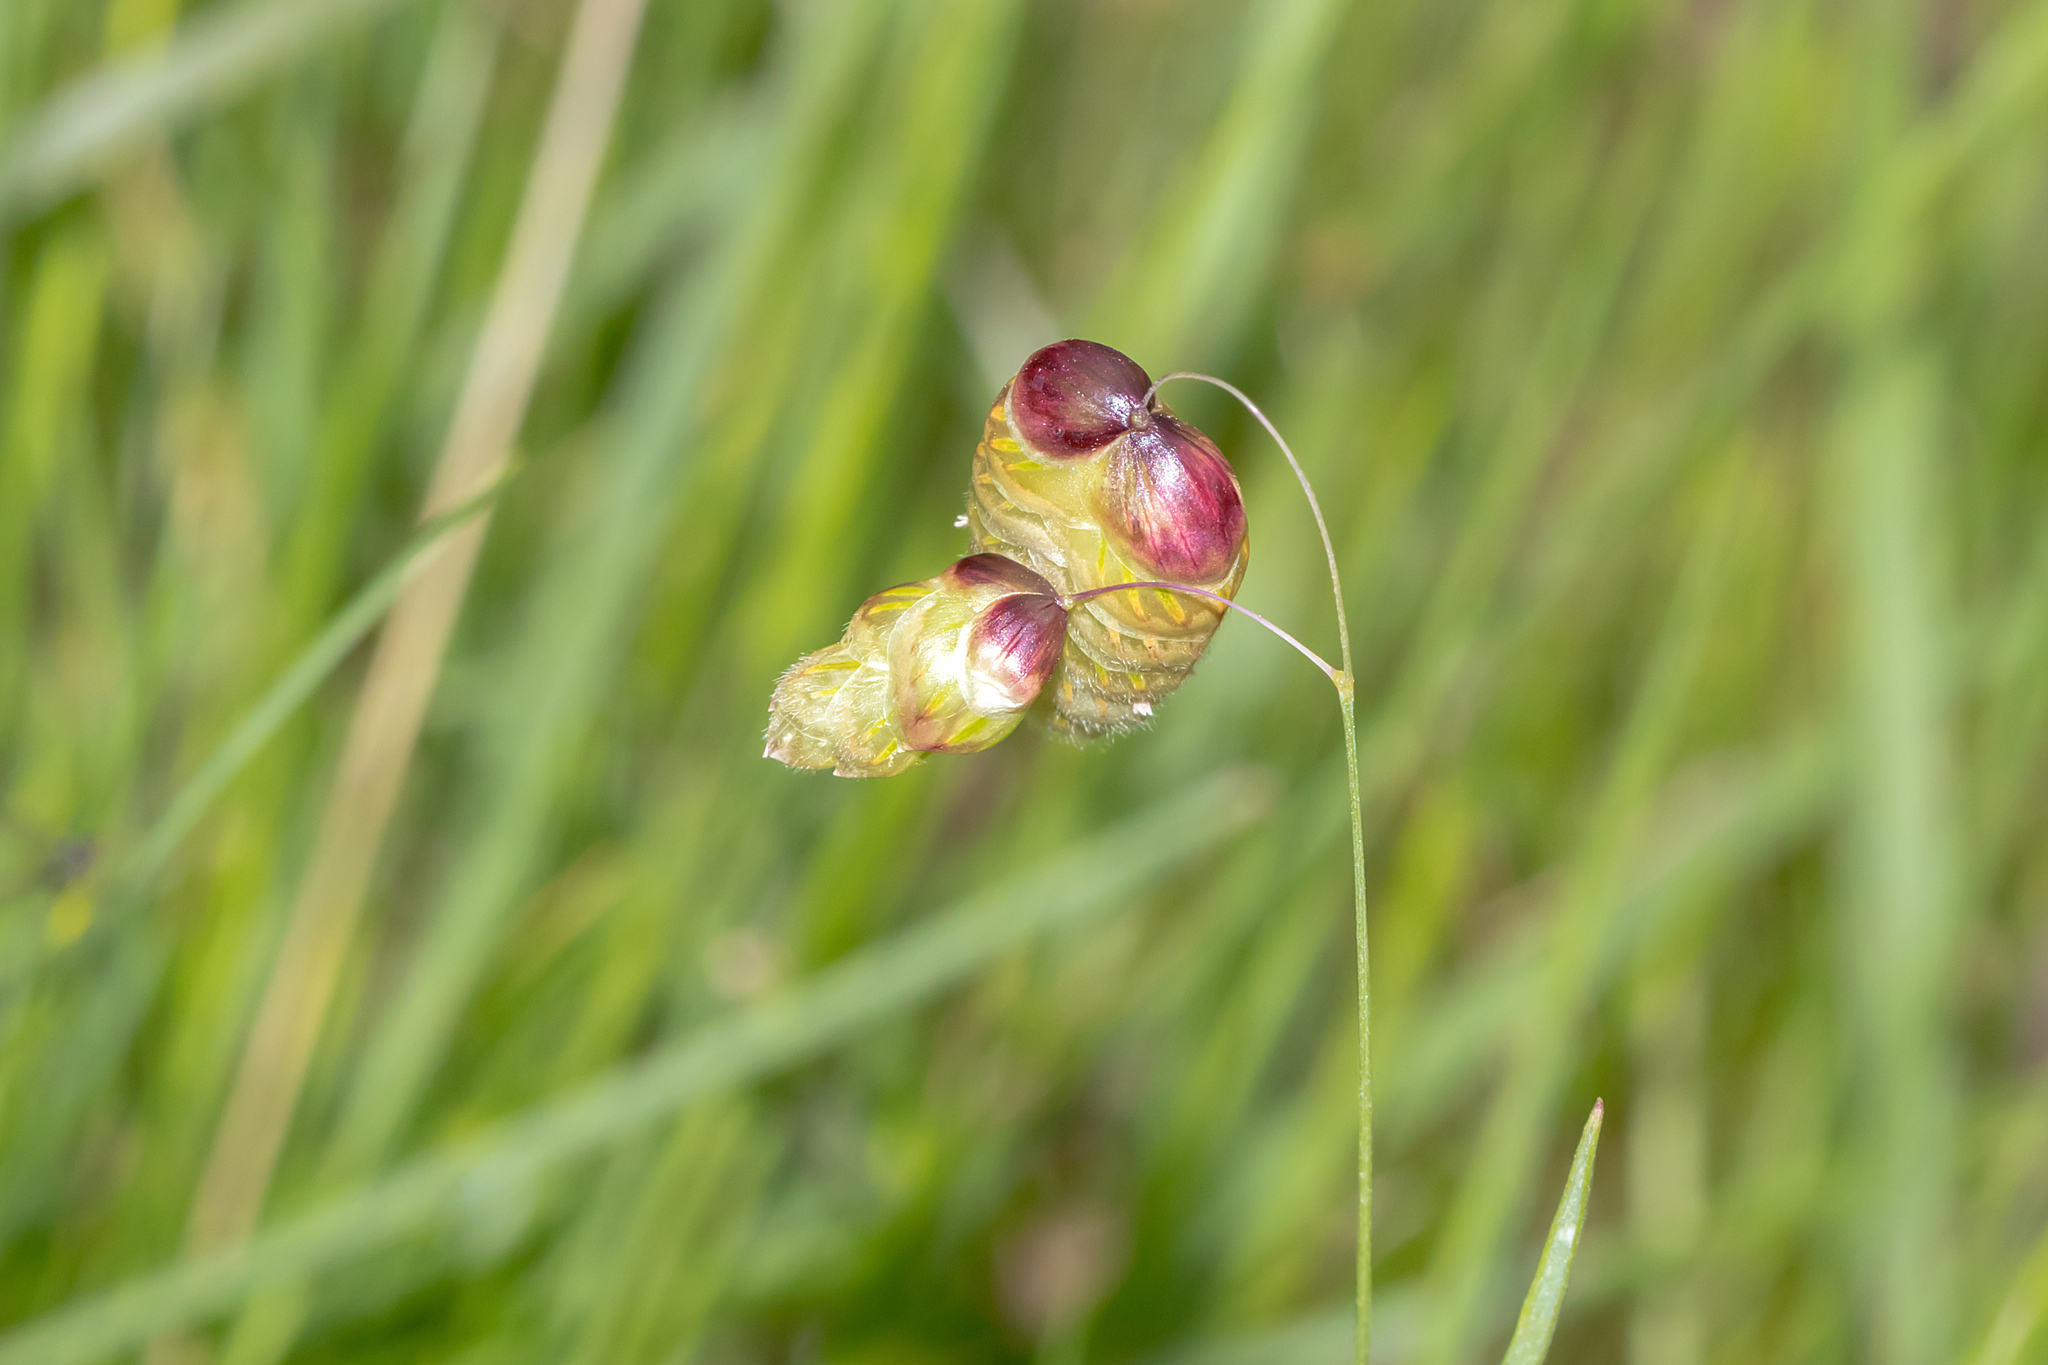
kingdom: Plantae
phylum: Tracheophyta
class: Liliopsida
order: Poales
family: Poaceae
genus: Briza
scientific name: Briza maxima
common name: Big quakinggrass
